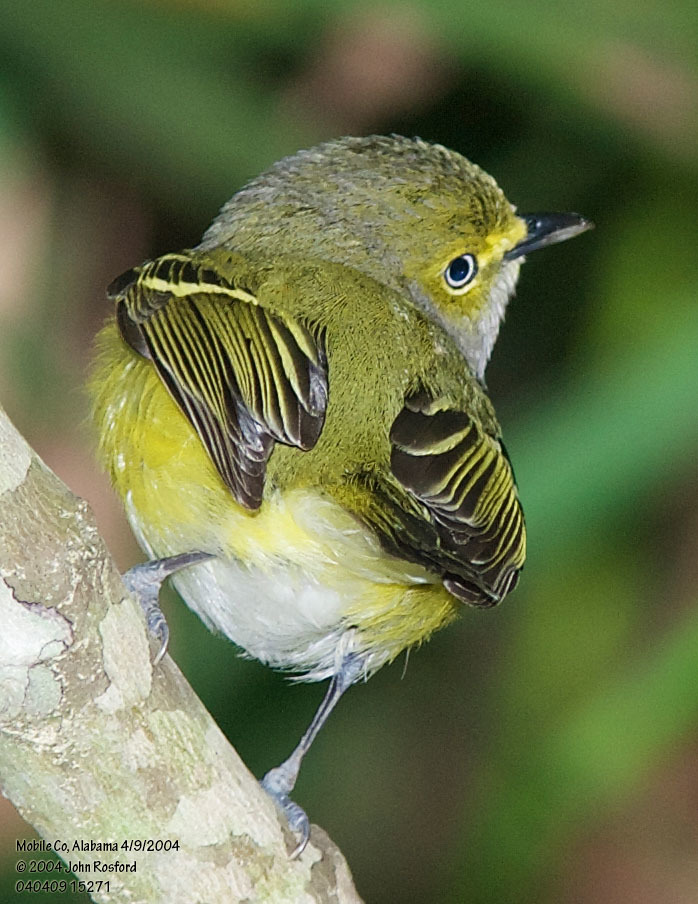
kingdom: Animalia
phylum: Chordata
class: Aves
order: Passeriformes
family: Vireonidae
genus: Vireo
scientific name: Vireo griseus
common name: White-eyed vireo
